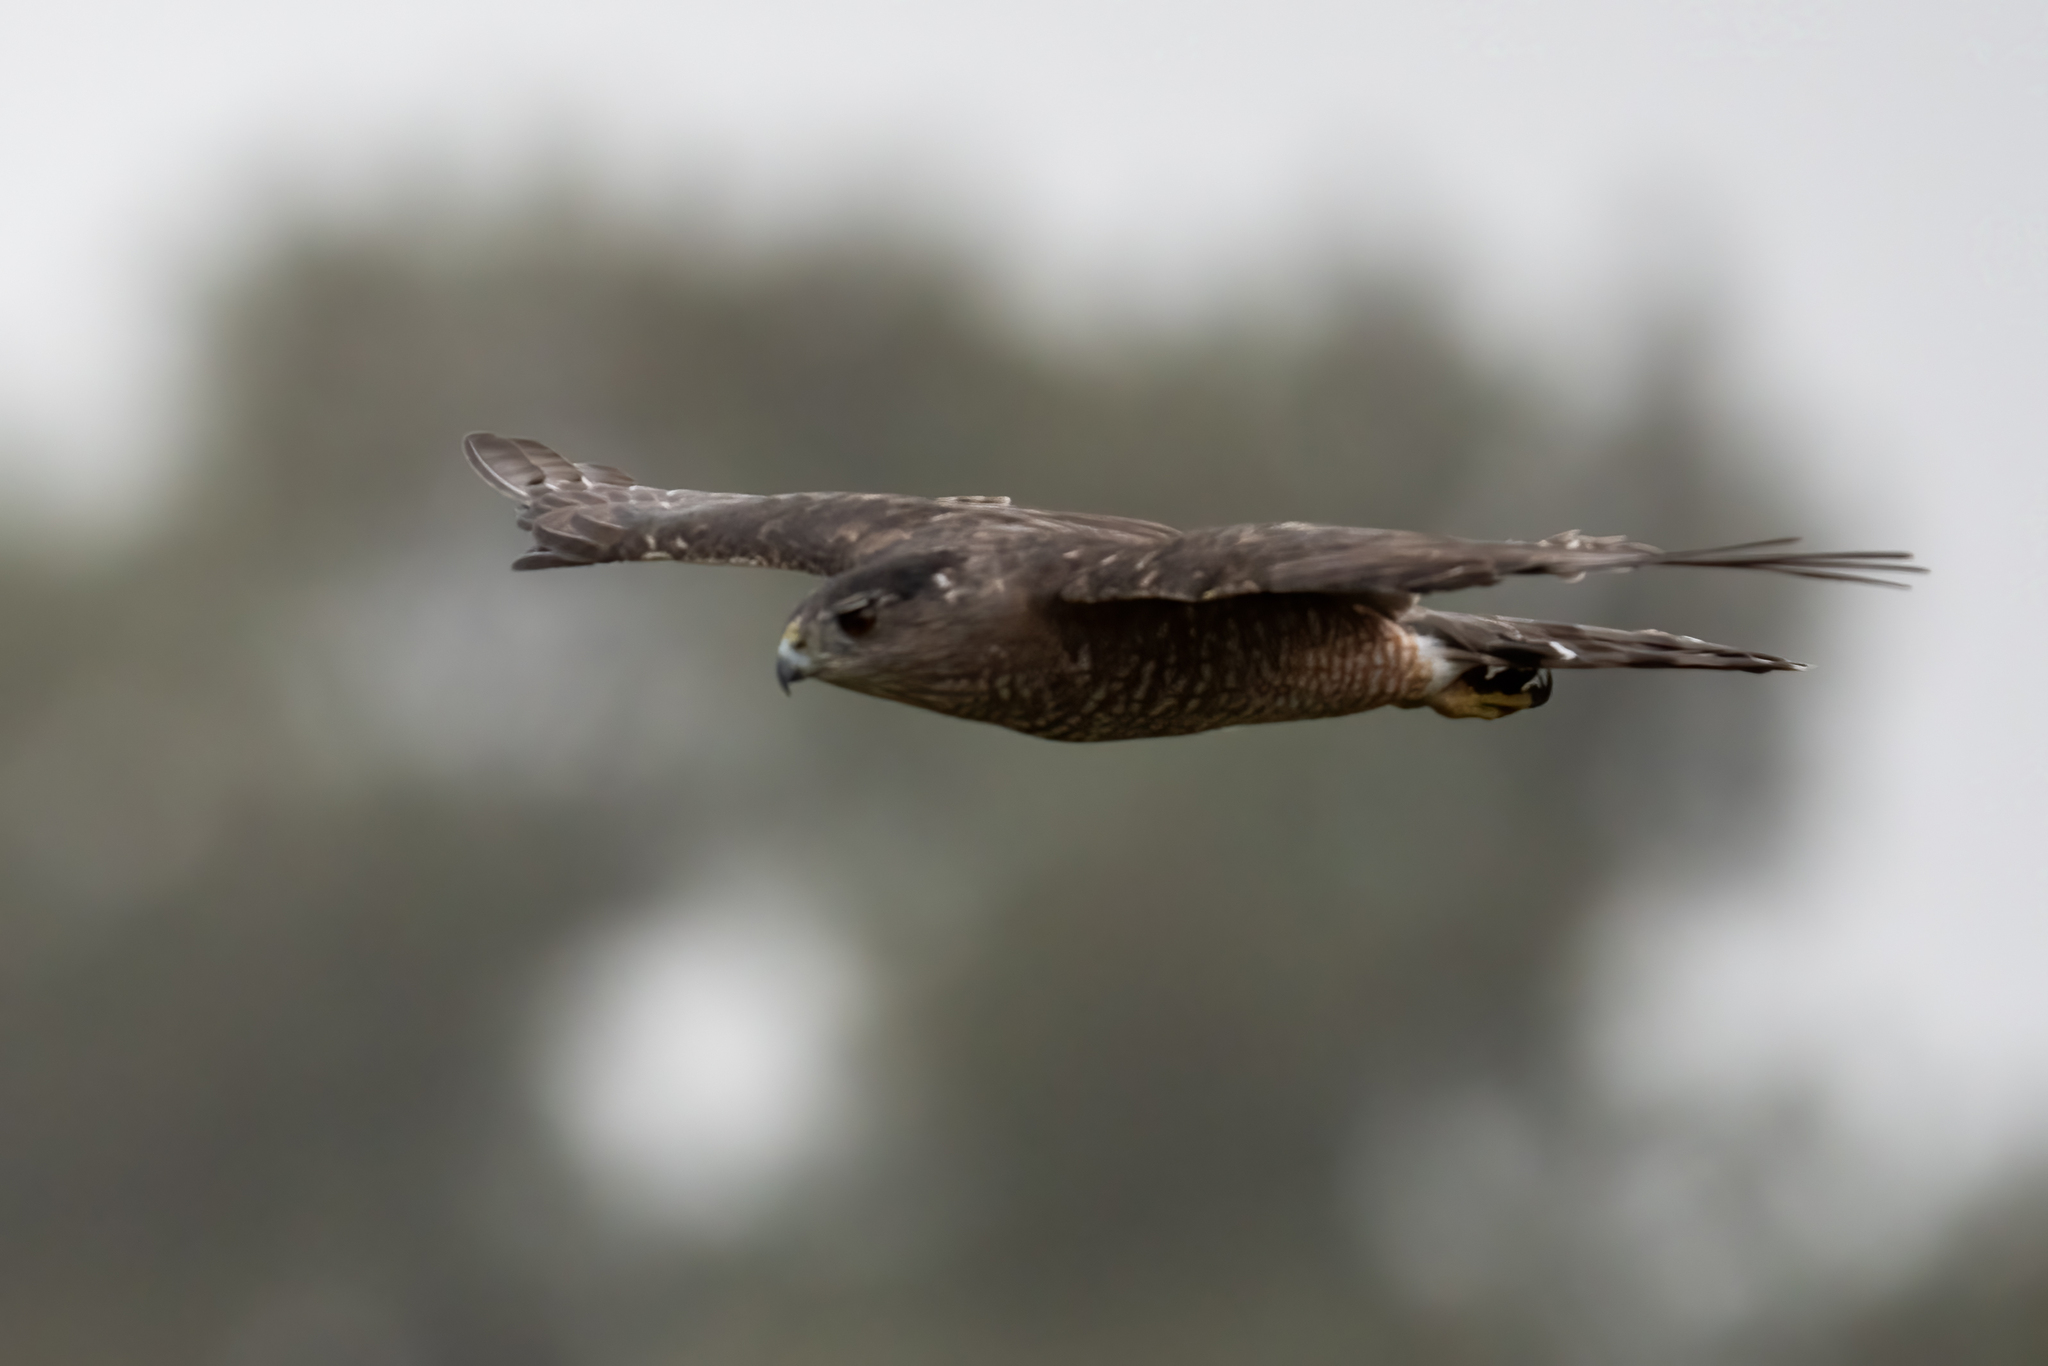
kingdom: Animalia
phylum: Chordata
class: Aves
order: Accipitriformes
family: Accipitridae
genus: Accipiter
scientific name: Accipiter cooperii
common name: Cooper's hawk
